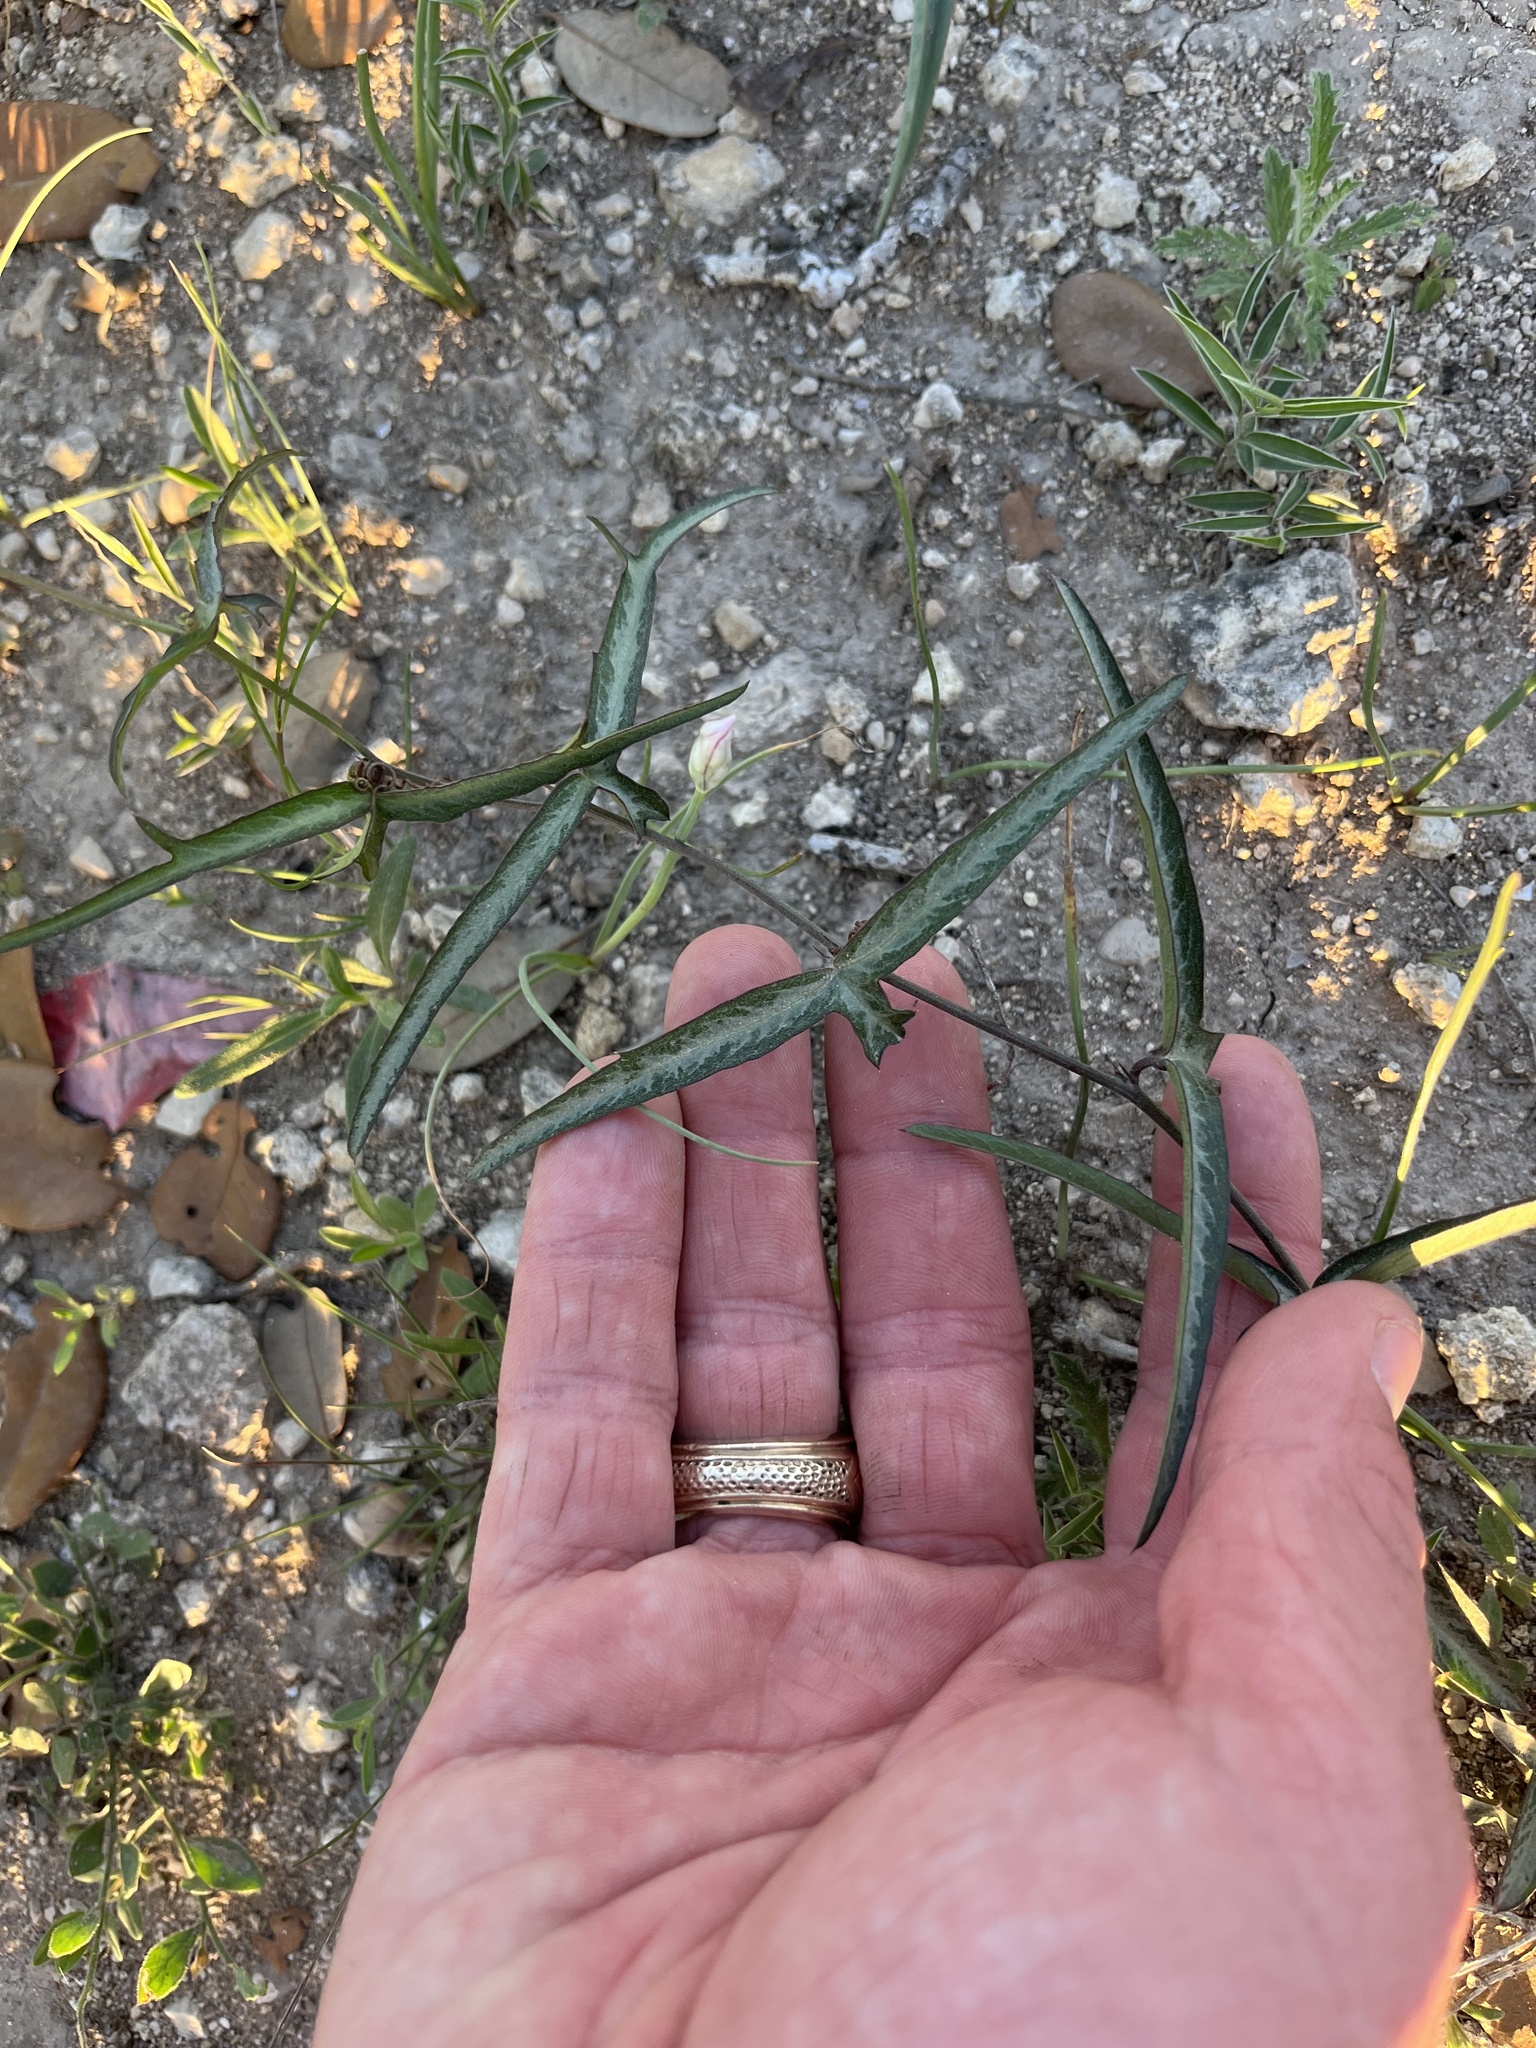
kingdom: Plantae
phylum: Tracheophyta
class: Magnoliopsida
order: Malpighiales
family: Passifloraceae
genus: Passiflora
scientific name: Passiflora tenuiloba
